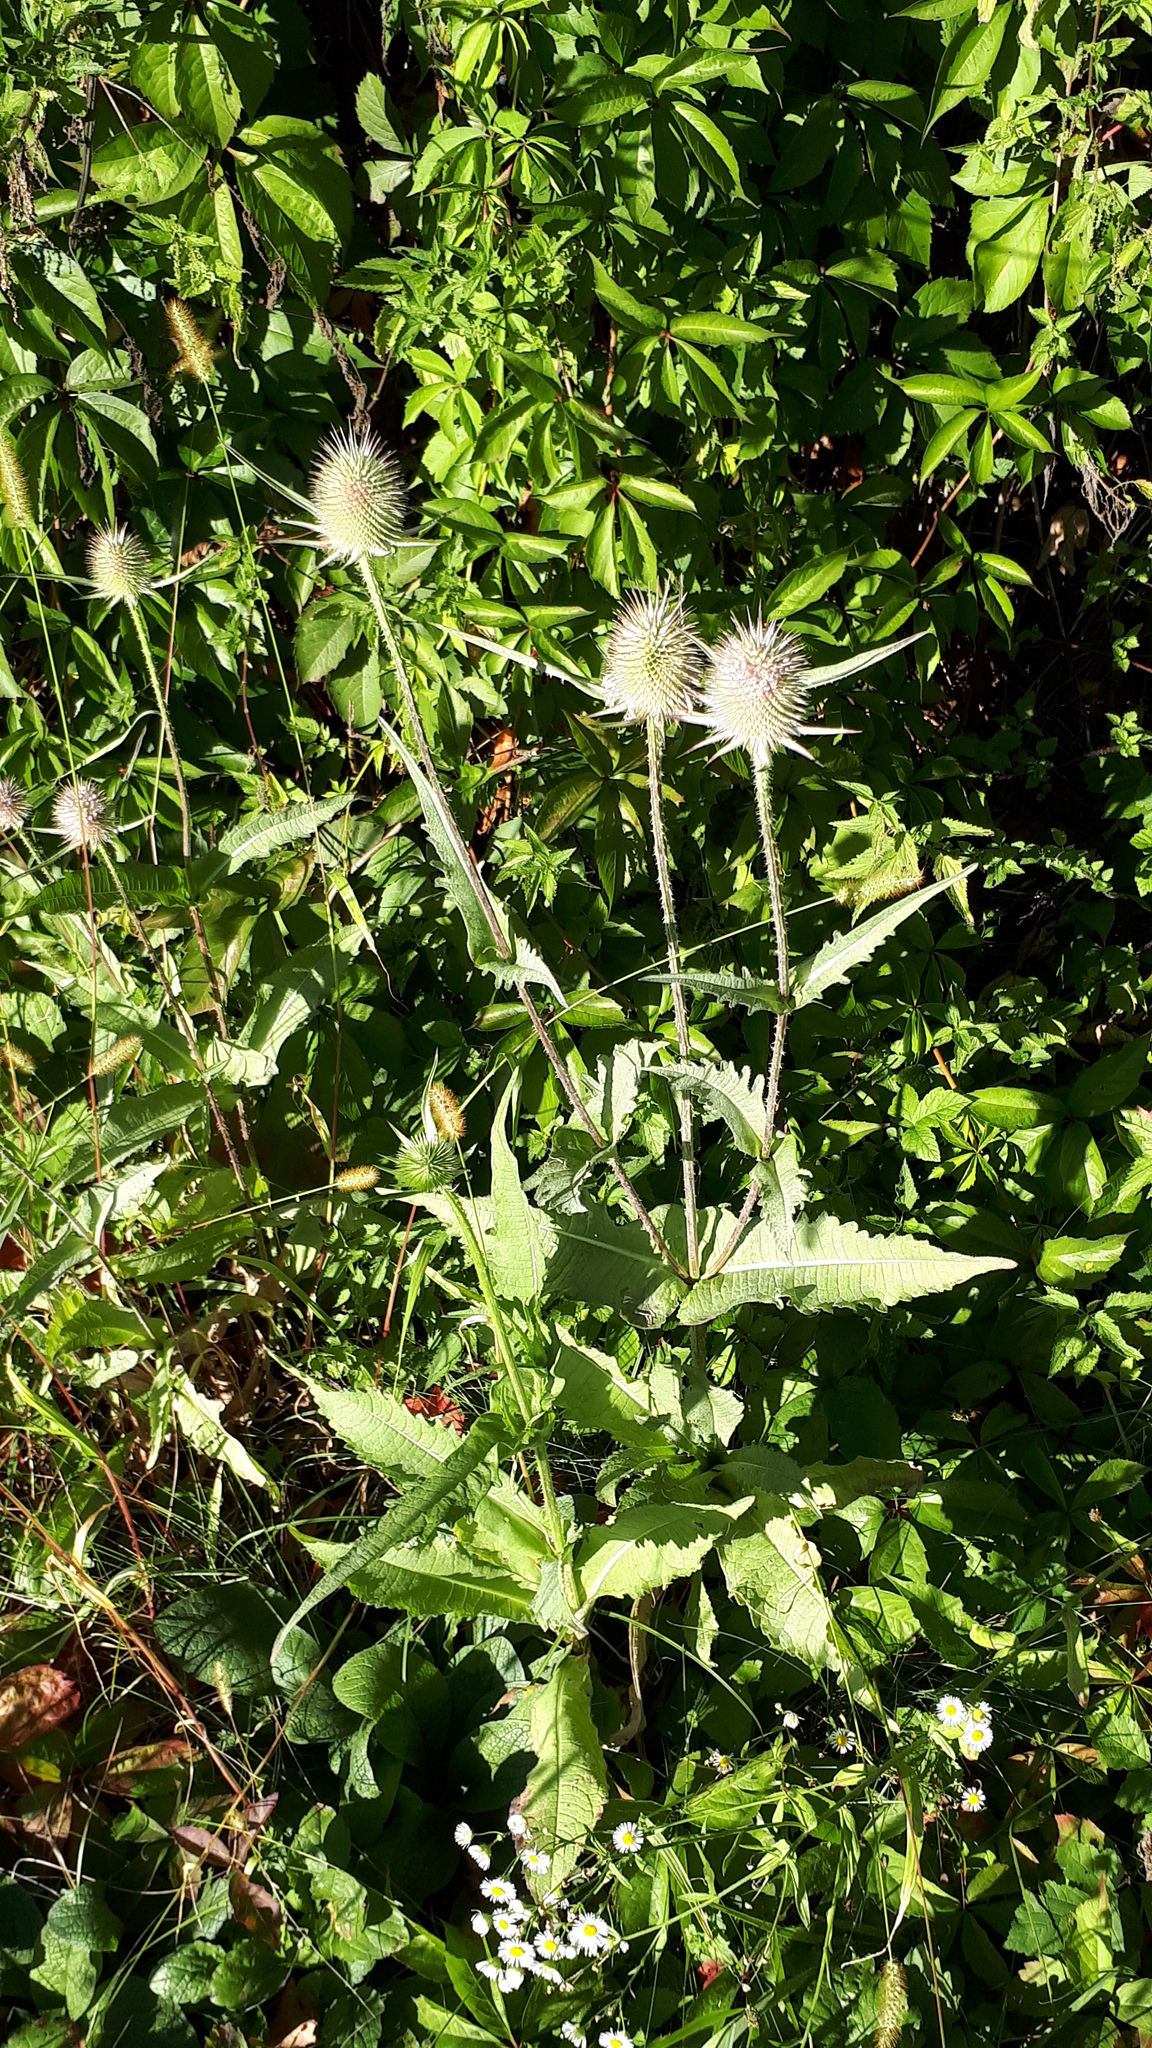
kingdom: Plantae
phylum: Tracheophyta
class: Magnoliopsida
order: Dipsacales
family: Caprifoliaceae
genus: Dipsacus
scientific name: Dipsacus fullonum
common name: Teasel
